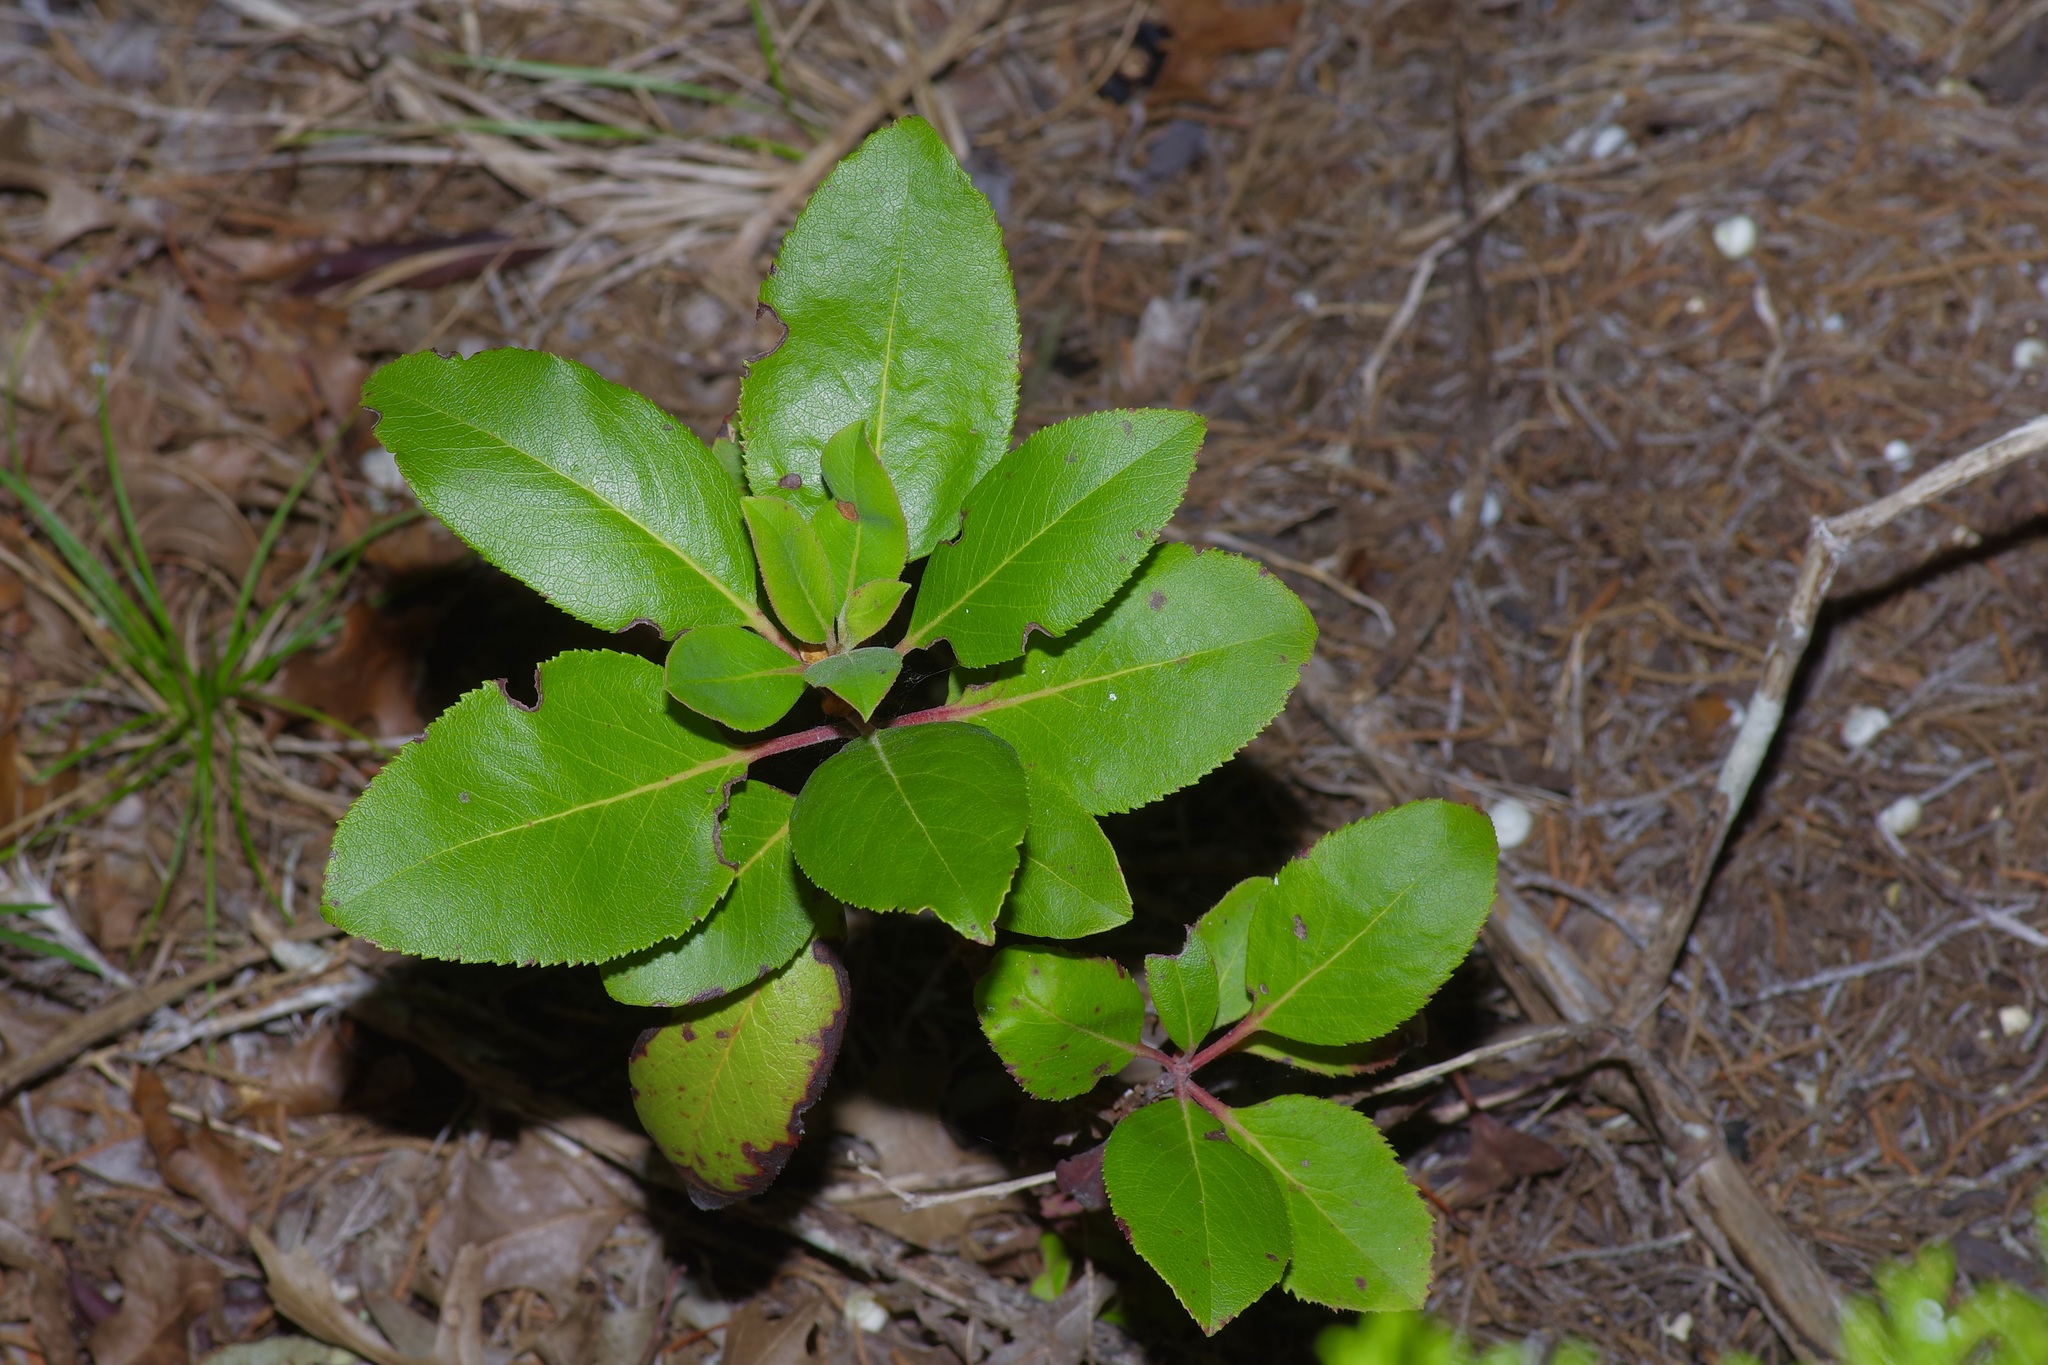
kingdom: Plantae
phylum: Tracheophyta
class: Magnoliopsida
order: Ericales
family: Ericaceae
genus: Arbutus
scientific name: Arbutus xalapensis
